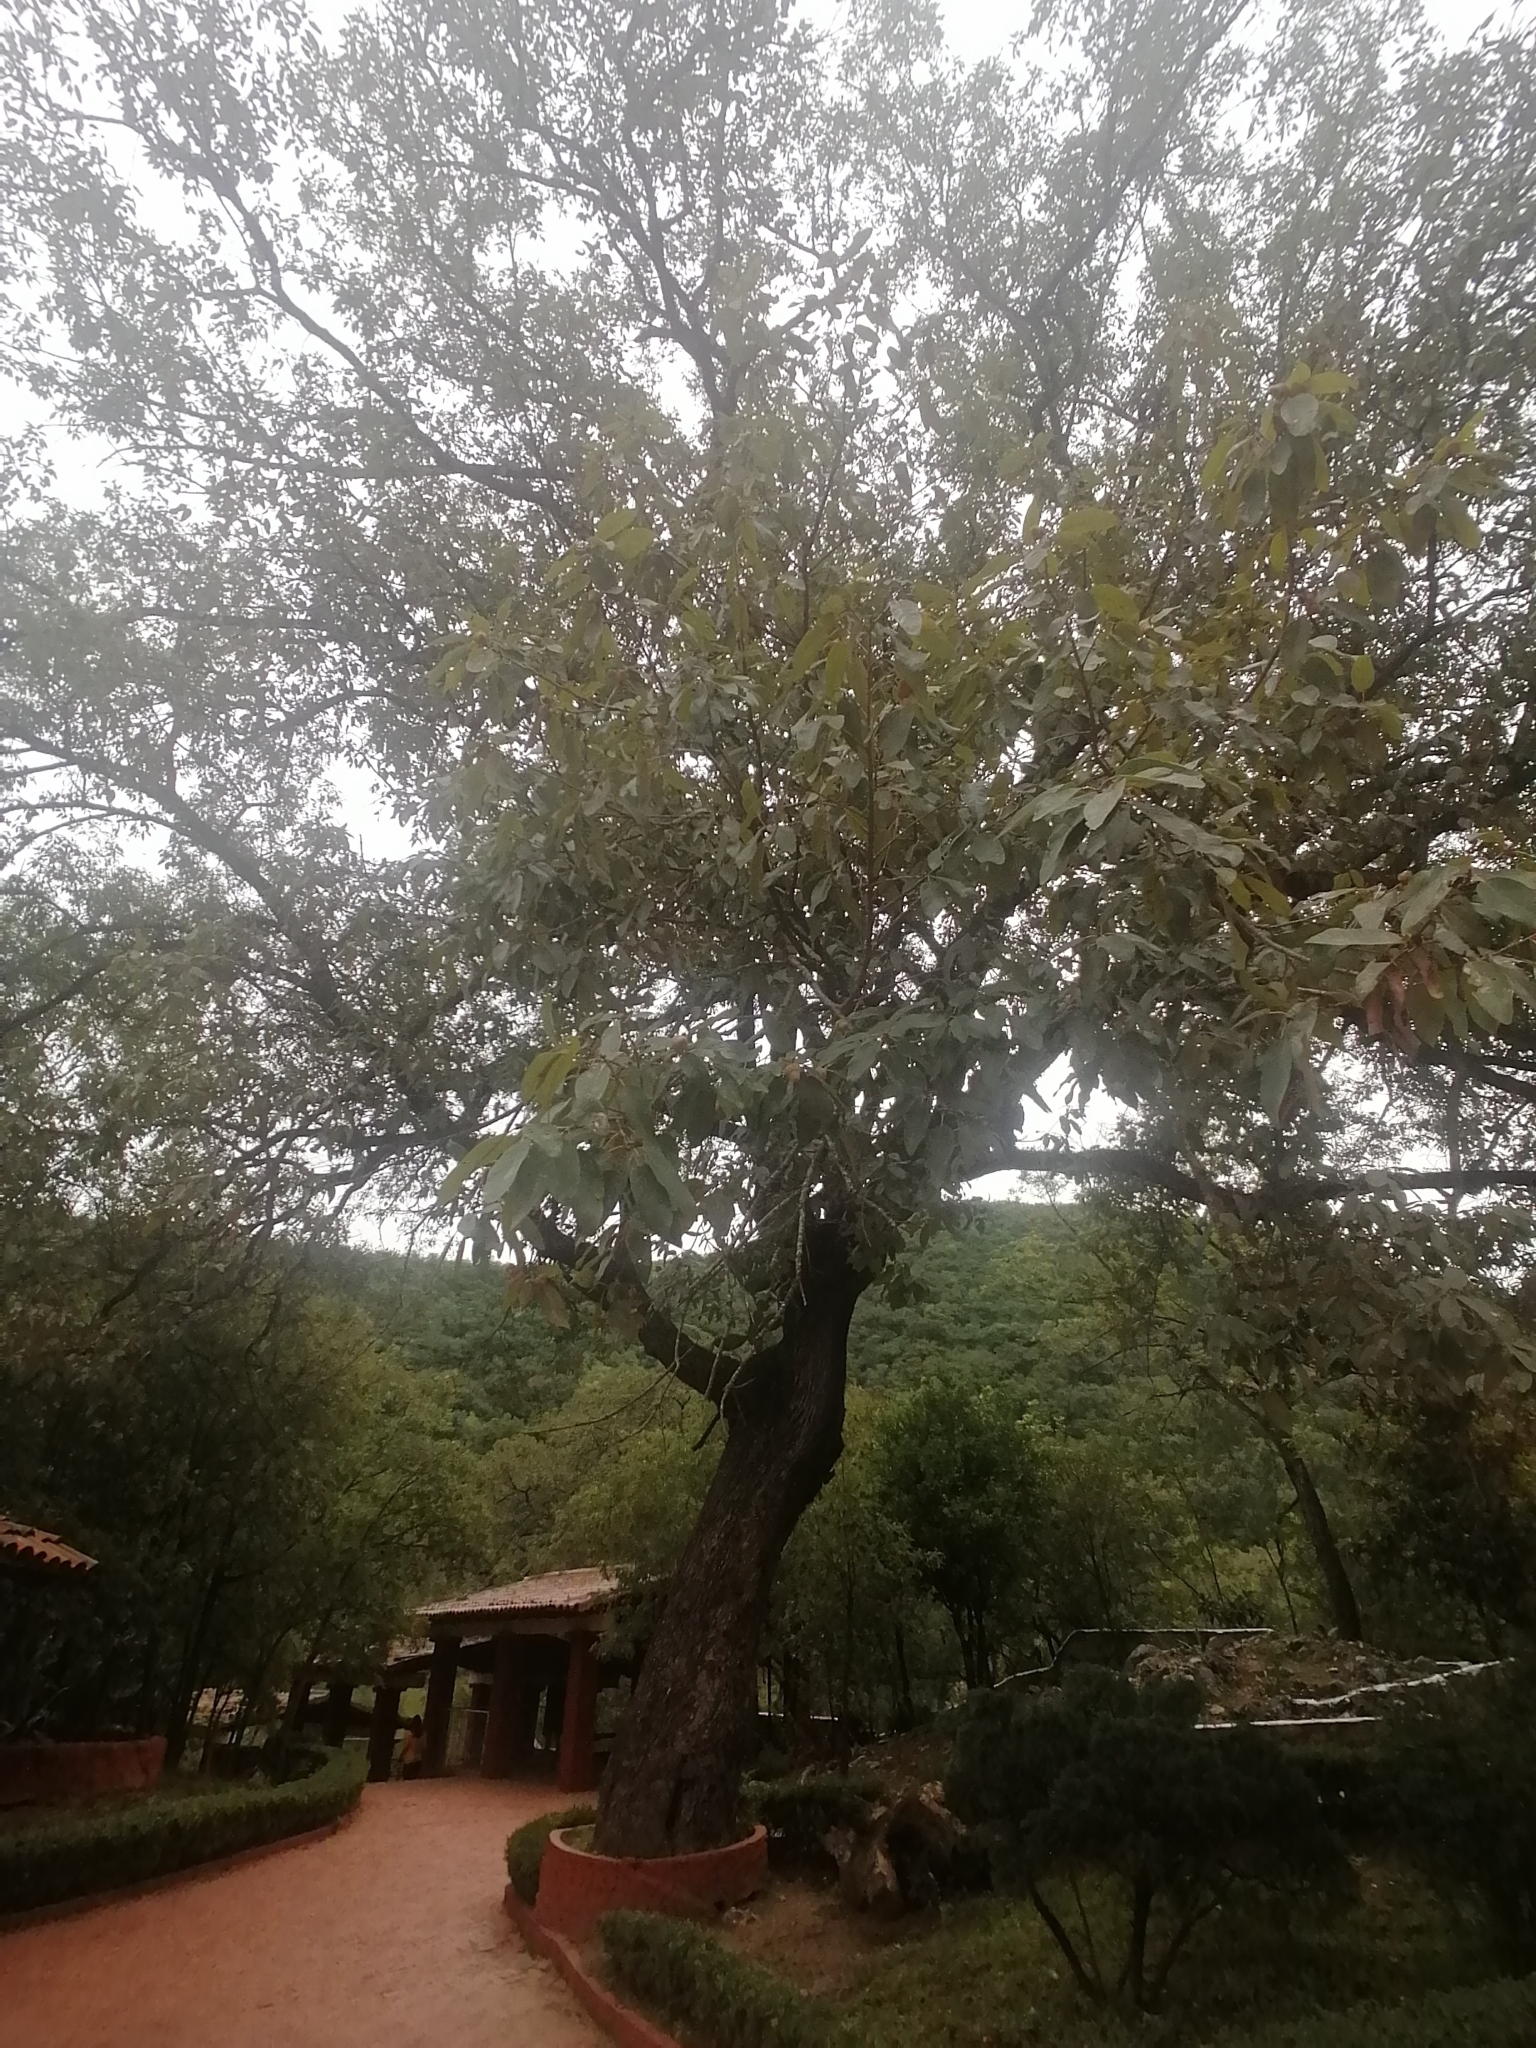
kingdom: Plantae
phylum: Tracheophyta
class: Magnoliopsida
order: Fagales
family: Fagaceae
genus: Quercus
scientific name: Quercus polymorpha
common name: Mexican white oak
